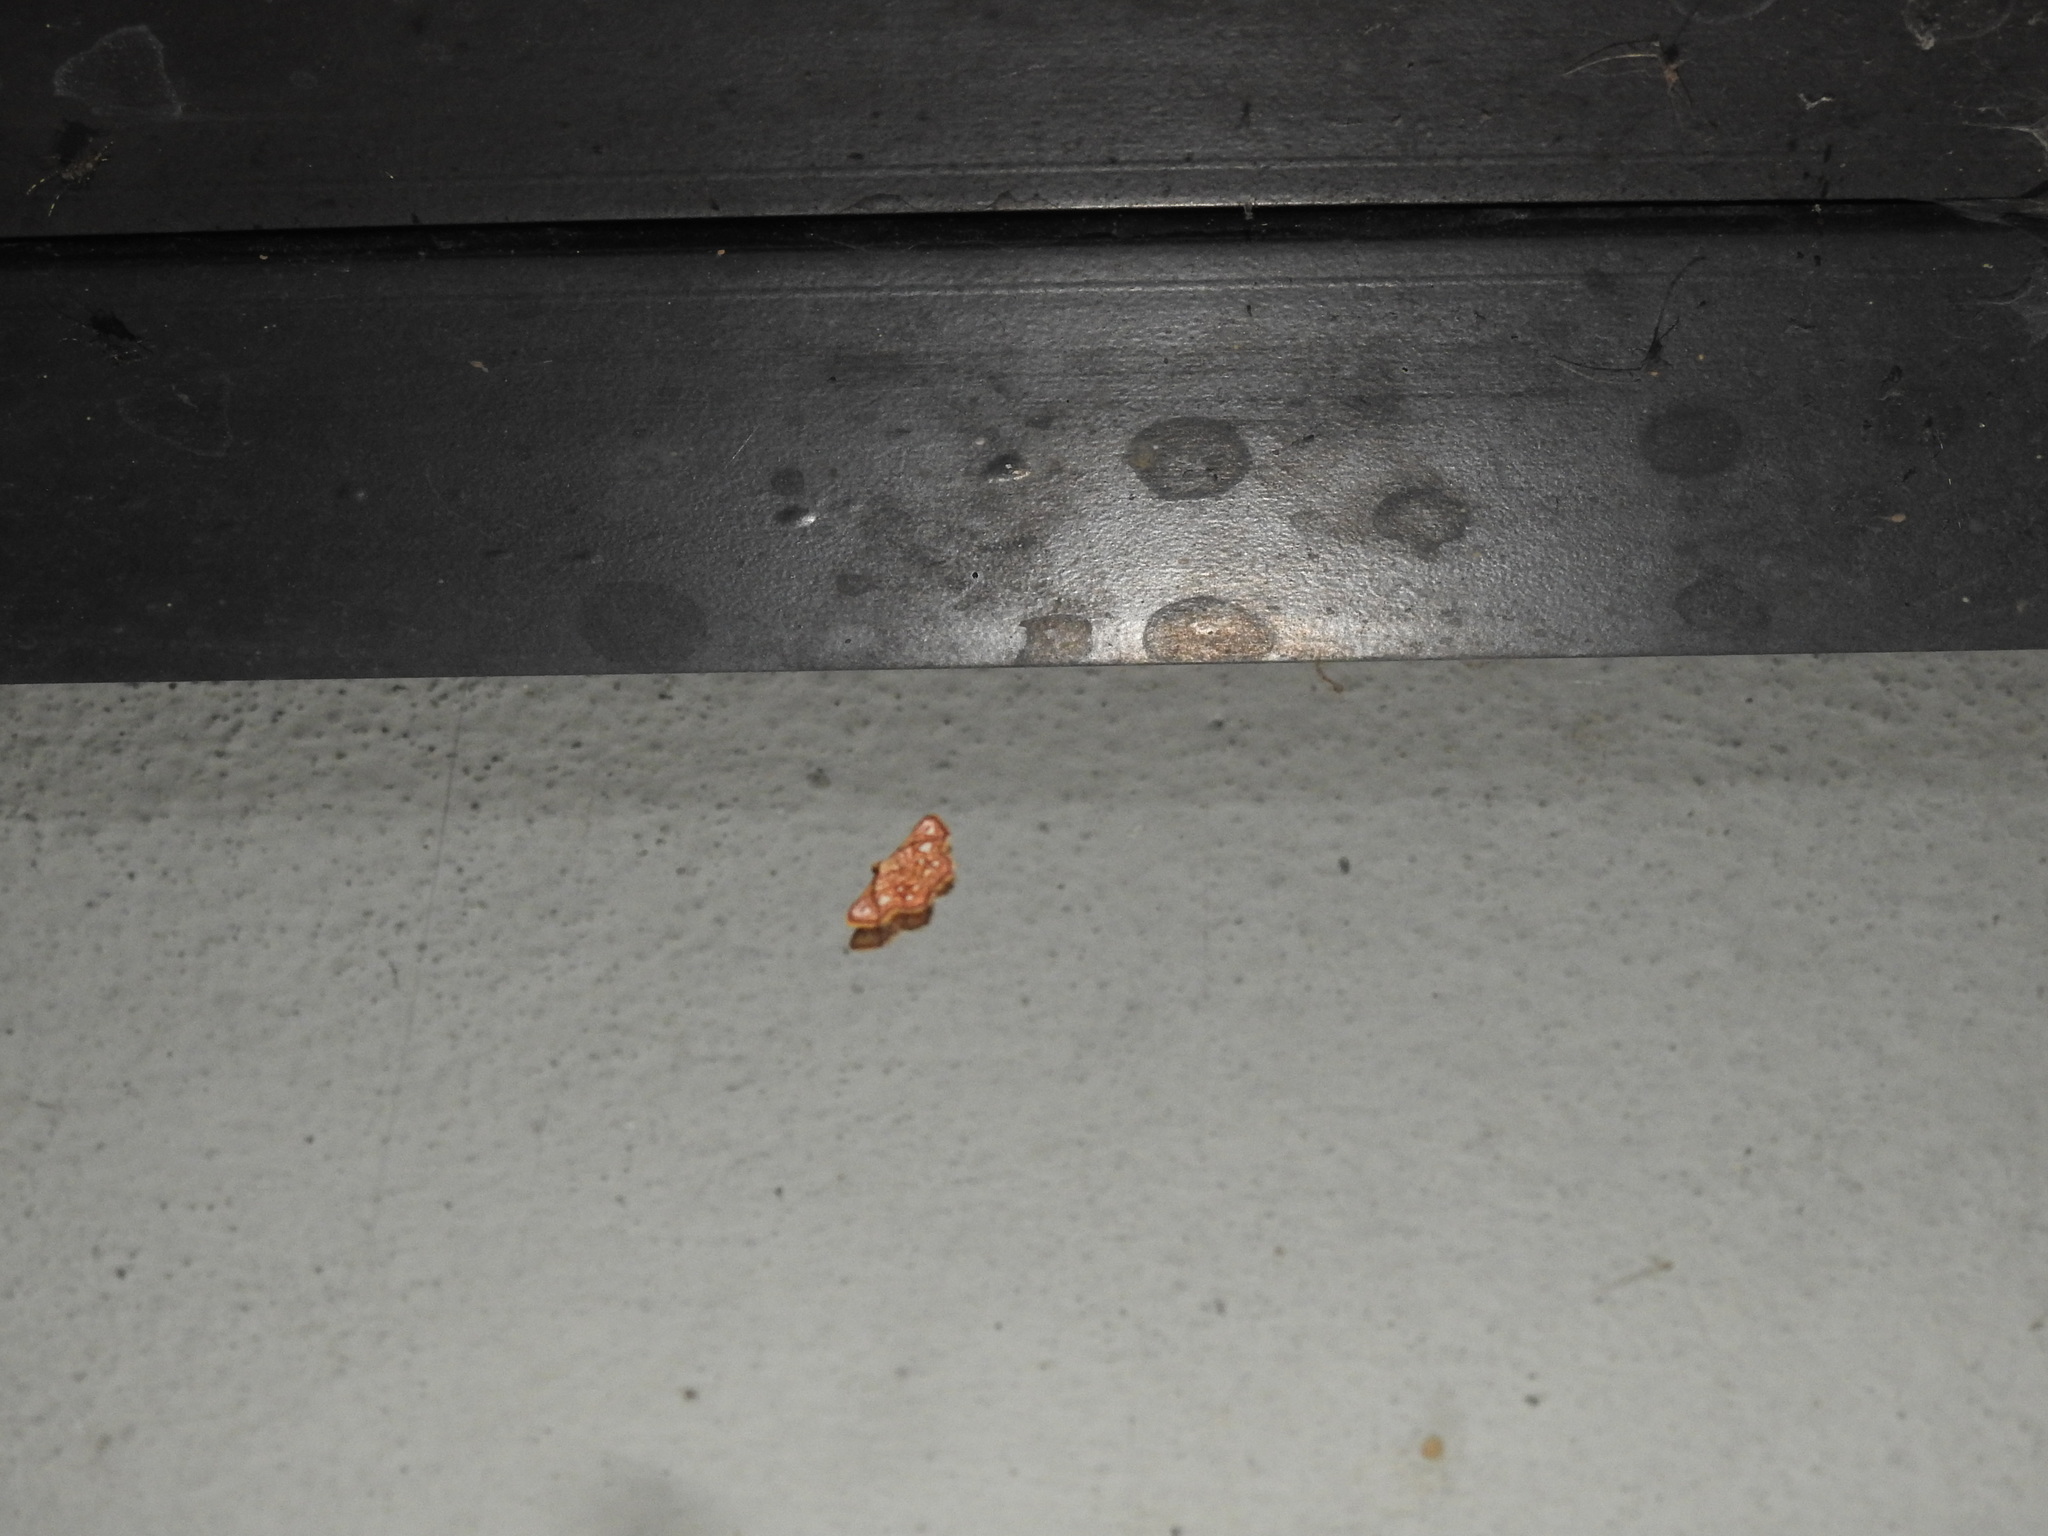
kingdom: Animalia
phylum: Arthropoda
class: Insecta
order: Lepidoptera
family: Noctuidae
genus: Enispa
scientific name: Enispa elataria
